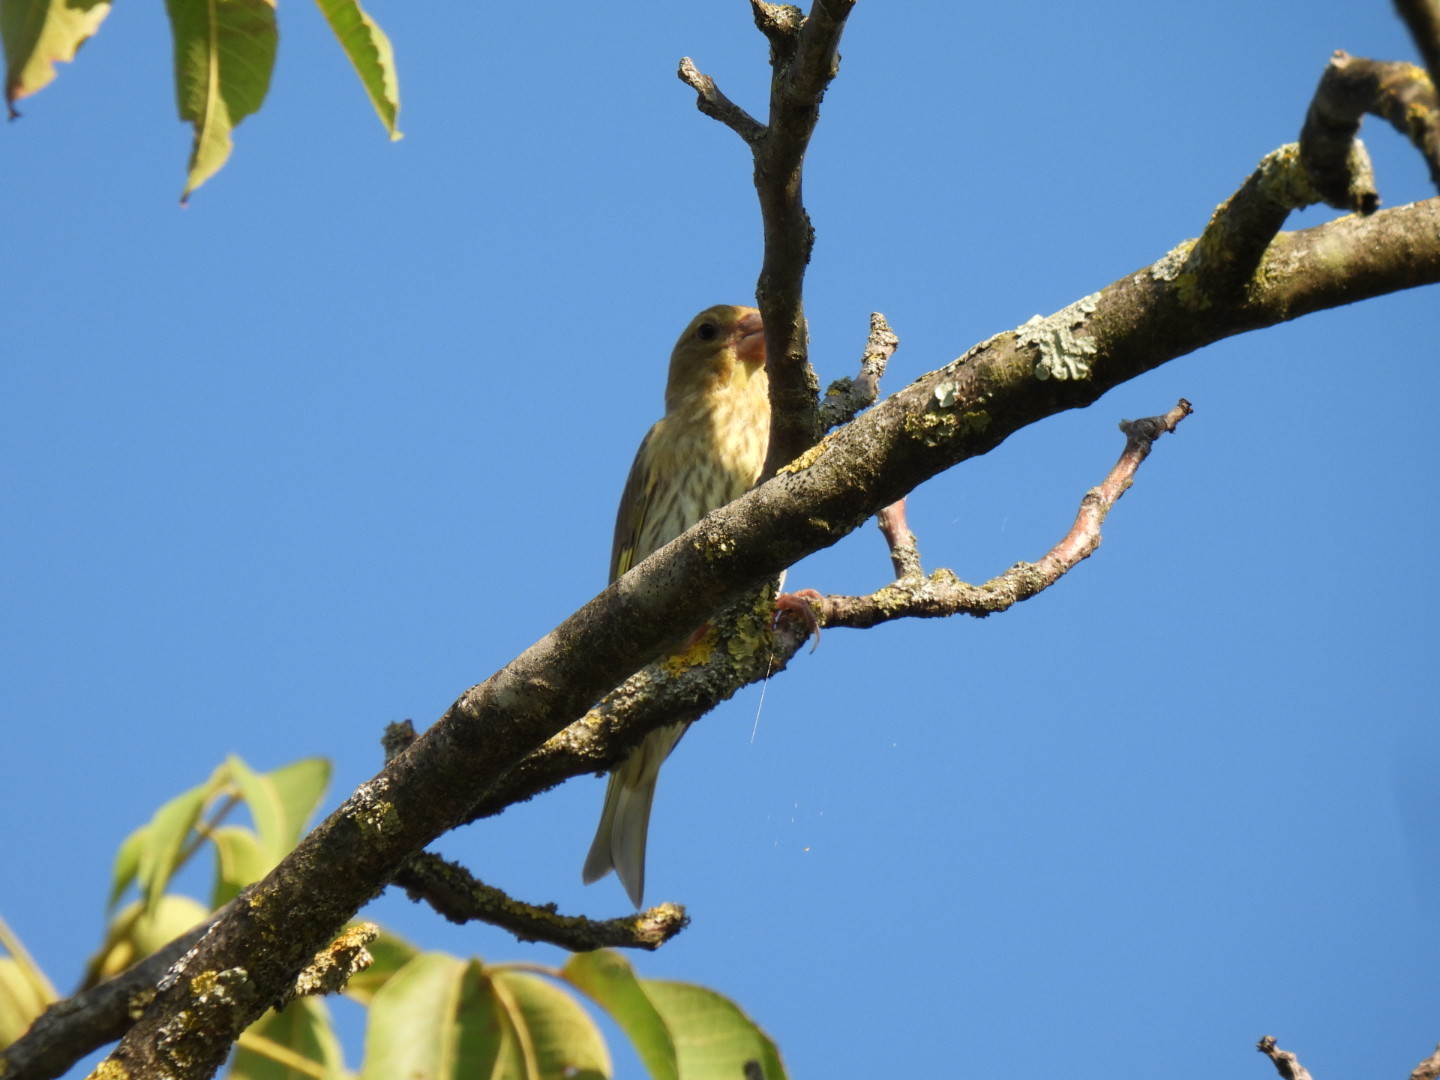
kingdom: Plantae
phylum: Tracheophyta
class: Liliopsida
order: Poales
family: Poaceae
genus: Chloris
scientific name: Chloris chloris
